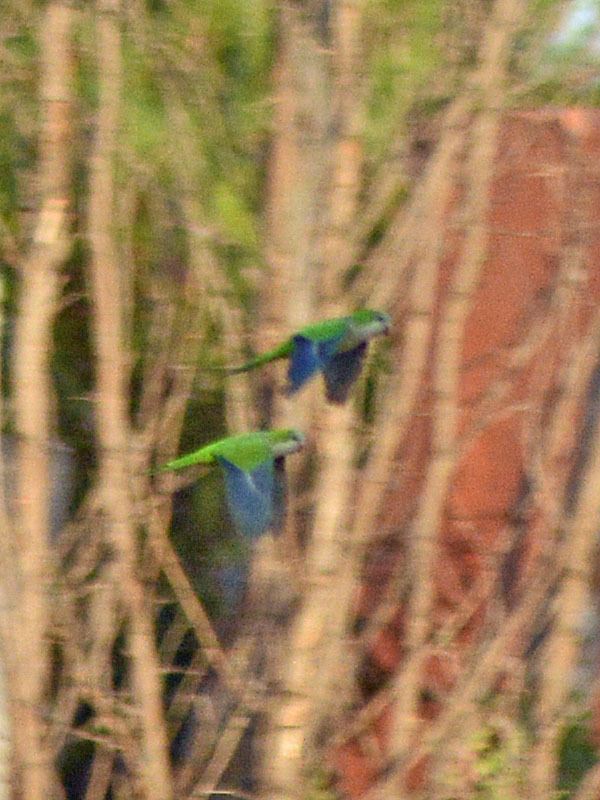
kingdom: Animalia
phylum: Chordata
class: Aves
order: Psittaciformes
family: Psittacidae
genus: Myiopsitta
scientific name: Myiopsitta monachus
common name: Monk parakeet
